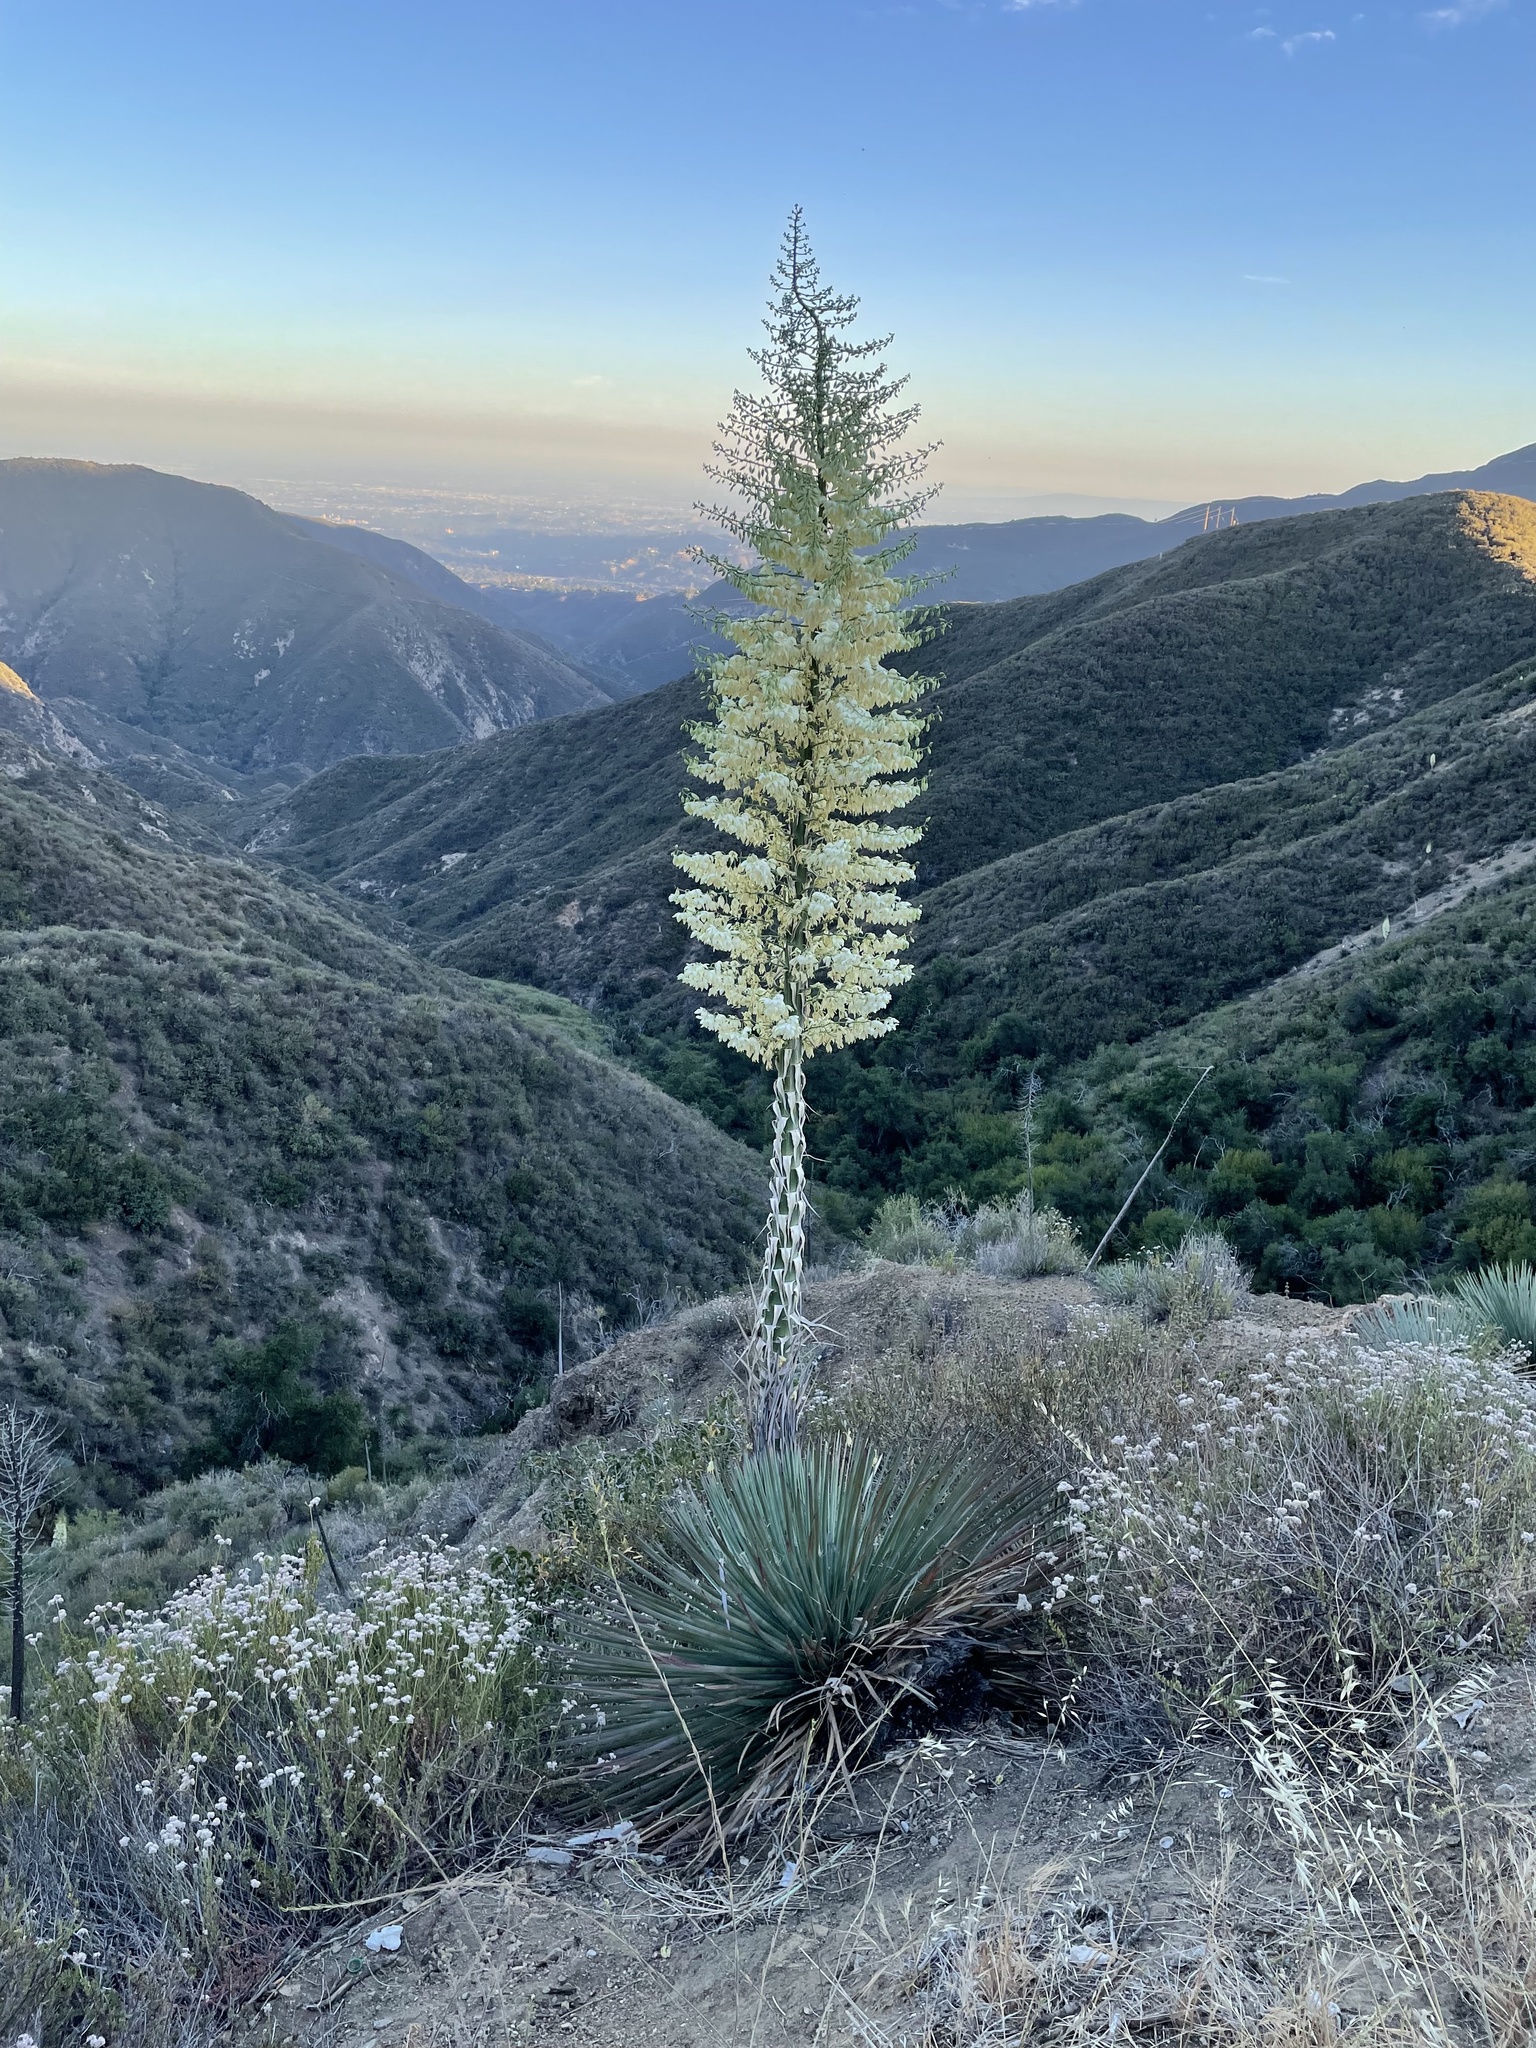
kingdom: Plantae
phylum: Tracheophyta
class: Liliopsida
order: Asparagales
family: Asparagaceae
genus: Hesperoyucca
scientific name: Hesperoyucca whipplei
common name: Our lord's-candle
